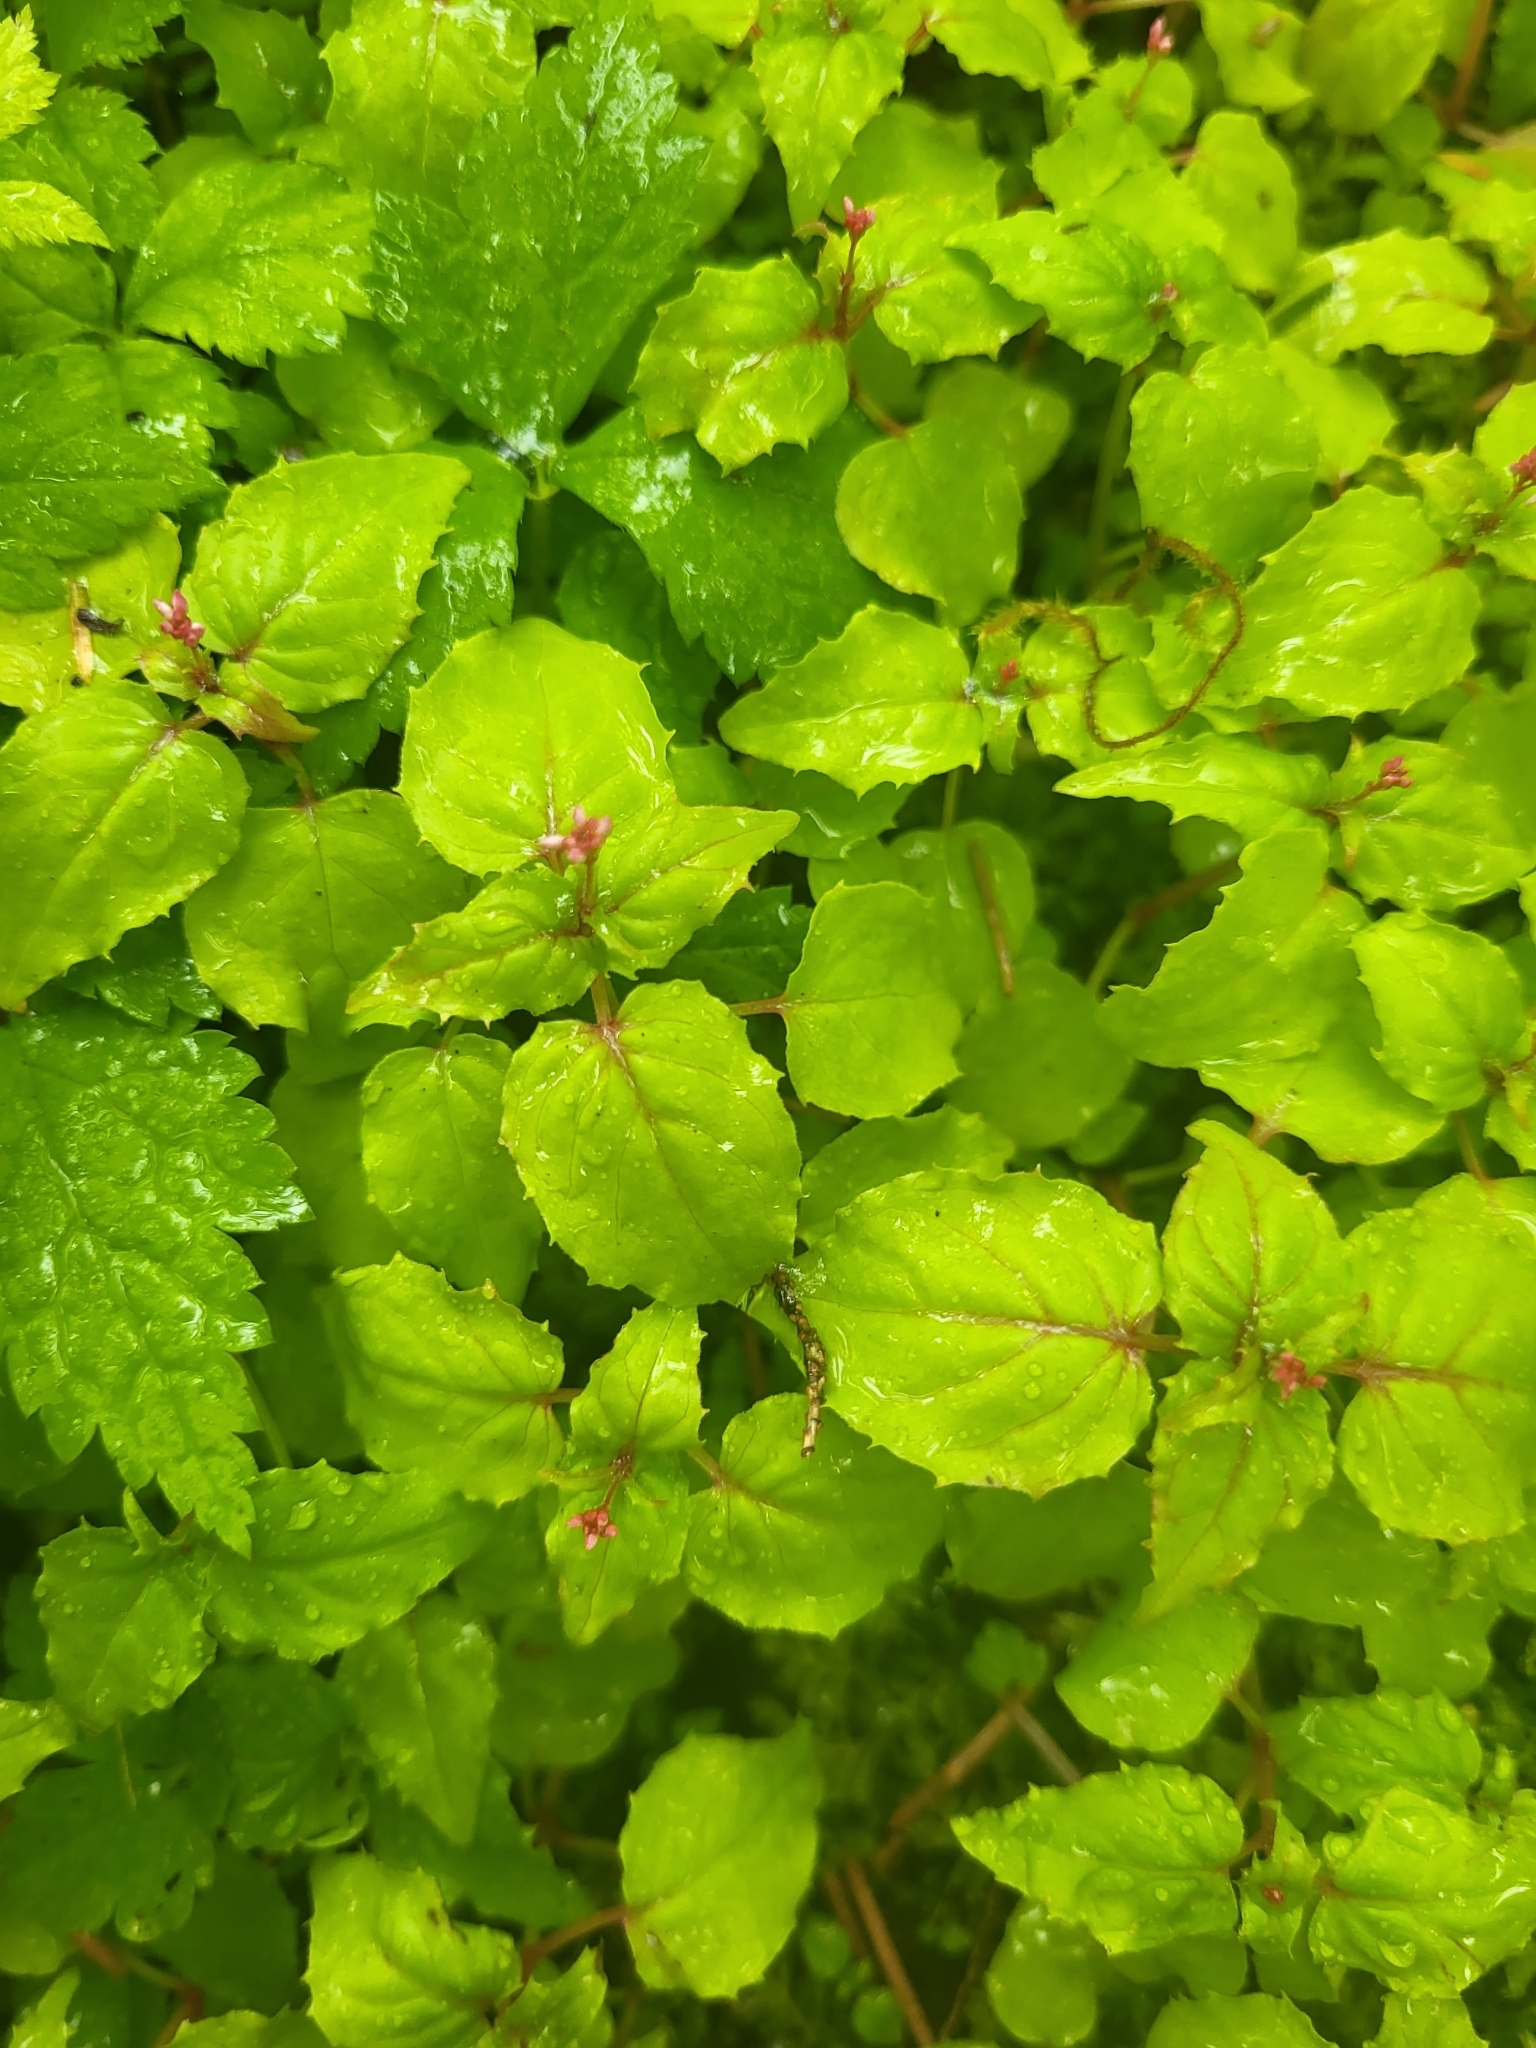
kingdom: Plantae
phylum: Tracheophyta
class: Magnoliopsida
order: Myrtales
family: Onagraceae
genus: Circaea
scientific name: Circaea alpina
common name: Alpine enchanter's-nightshade
